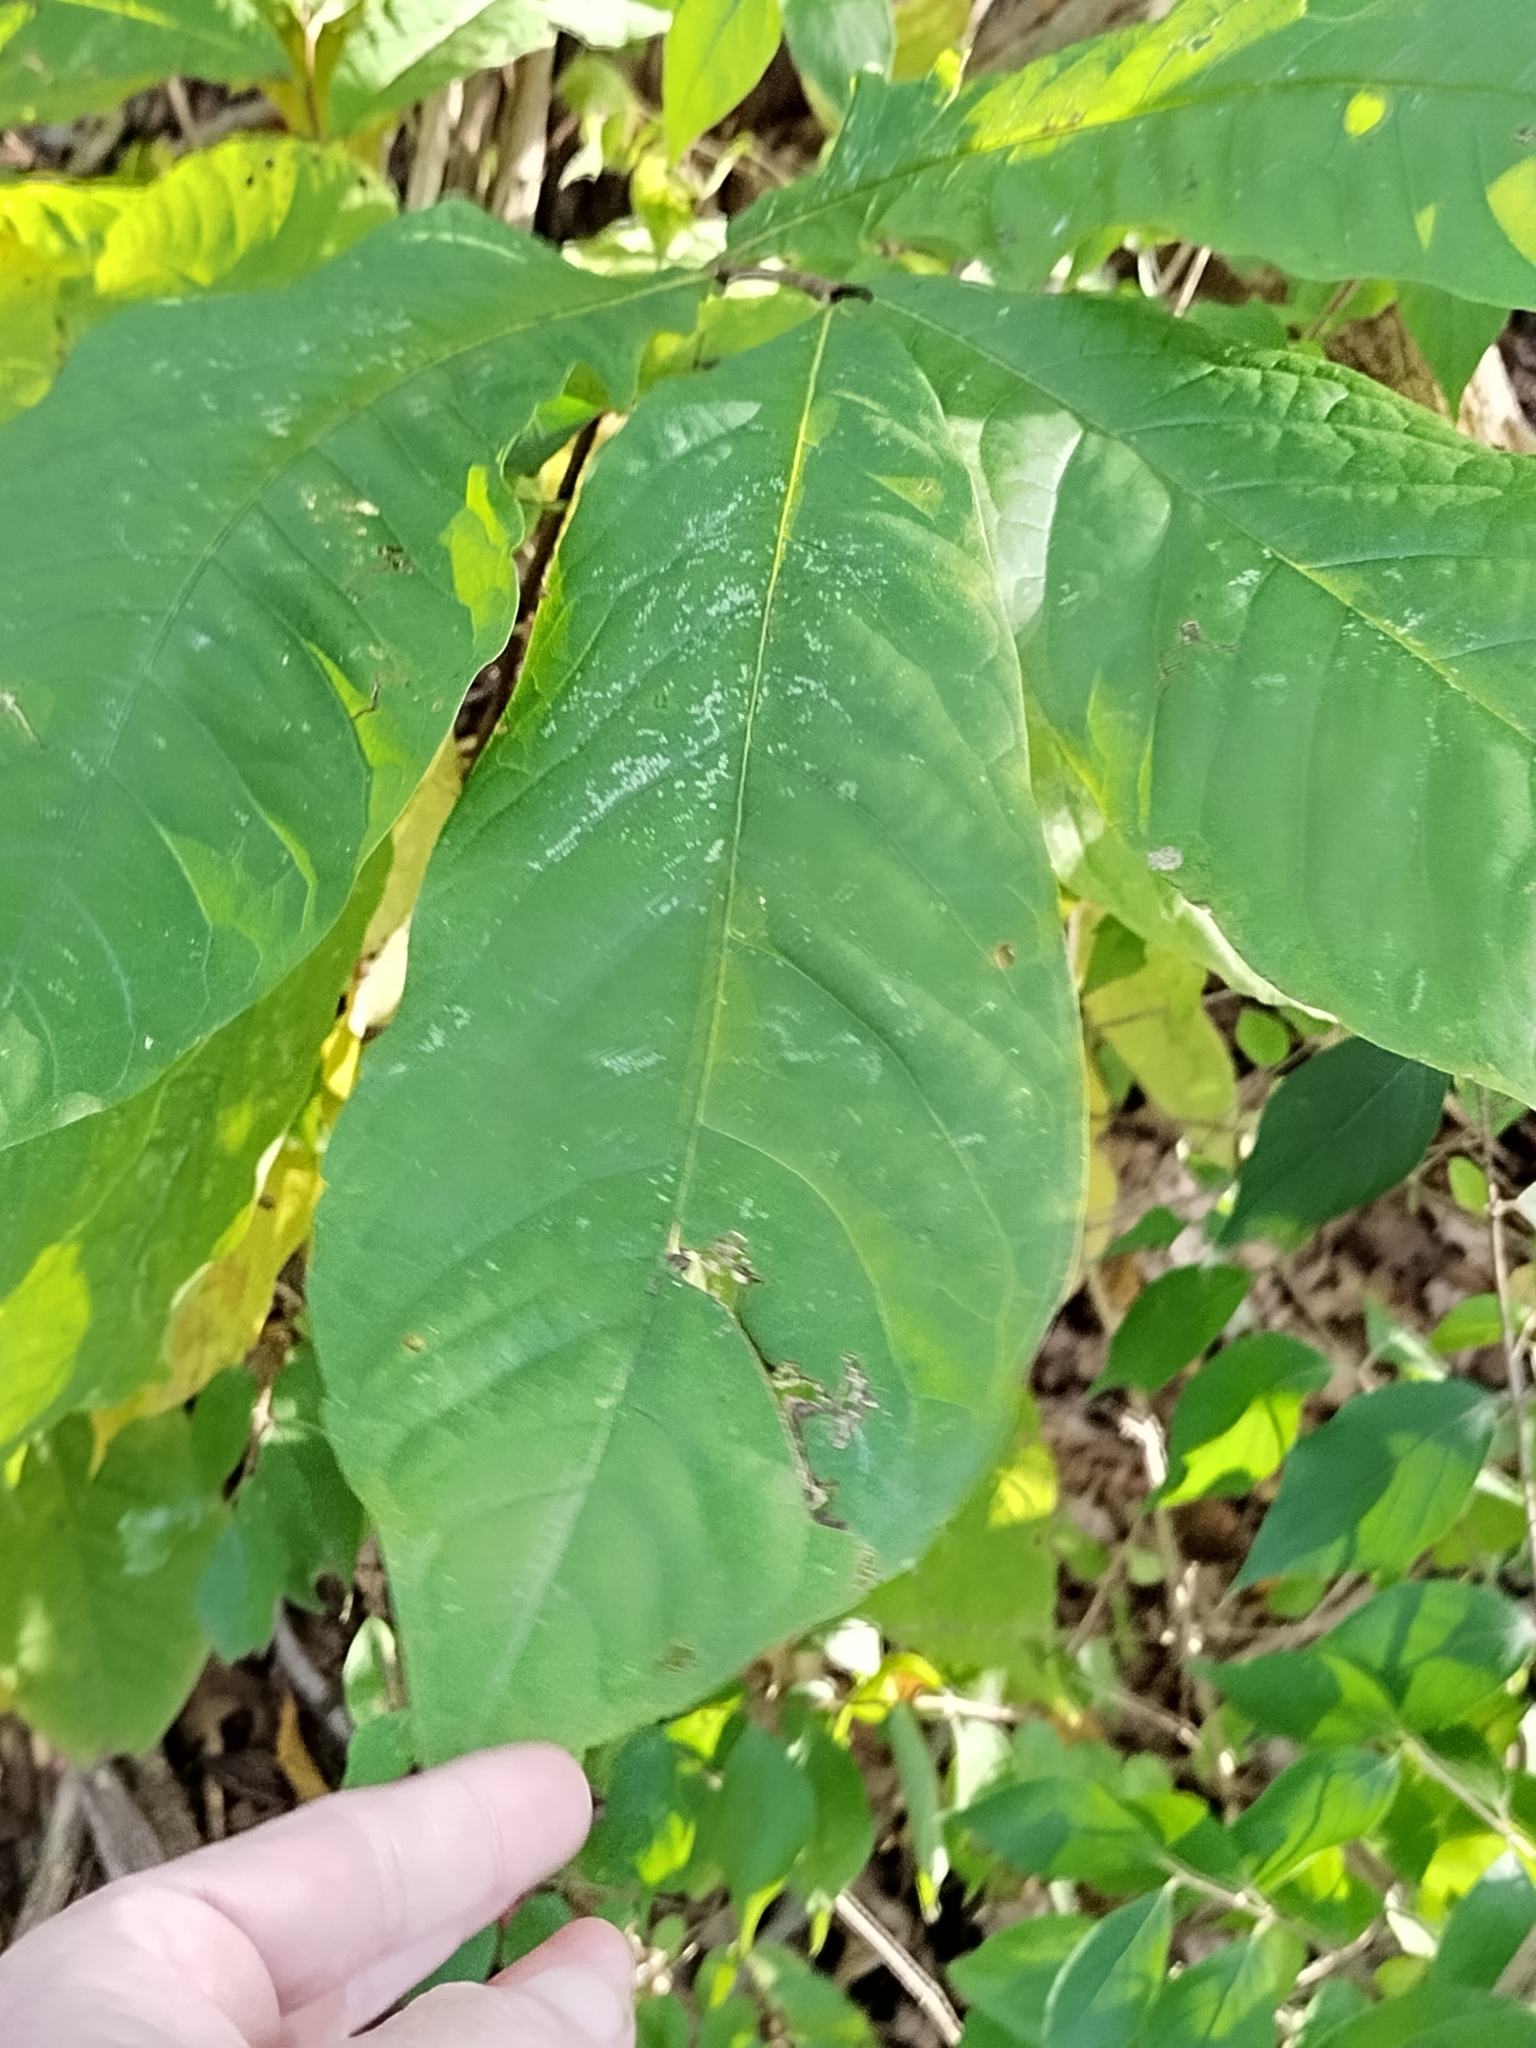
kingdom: Plantae
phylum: Tracheophyta
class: Magnoliopsida
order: Magnoliales
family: Annonaceae
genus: Asimina
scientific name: Asimina triloba
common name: Dog-banana
